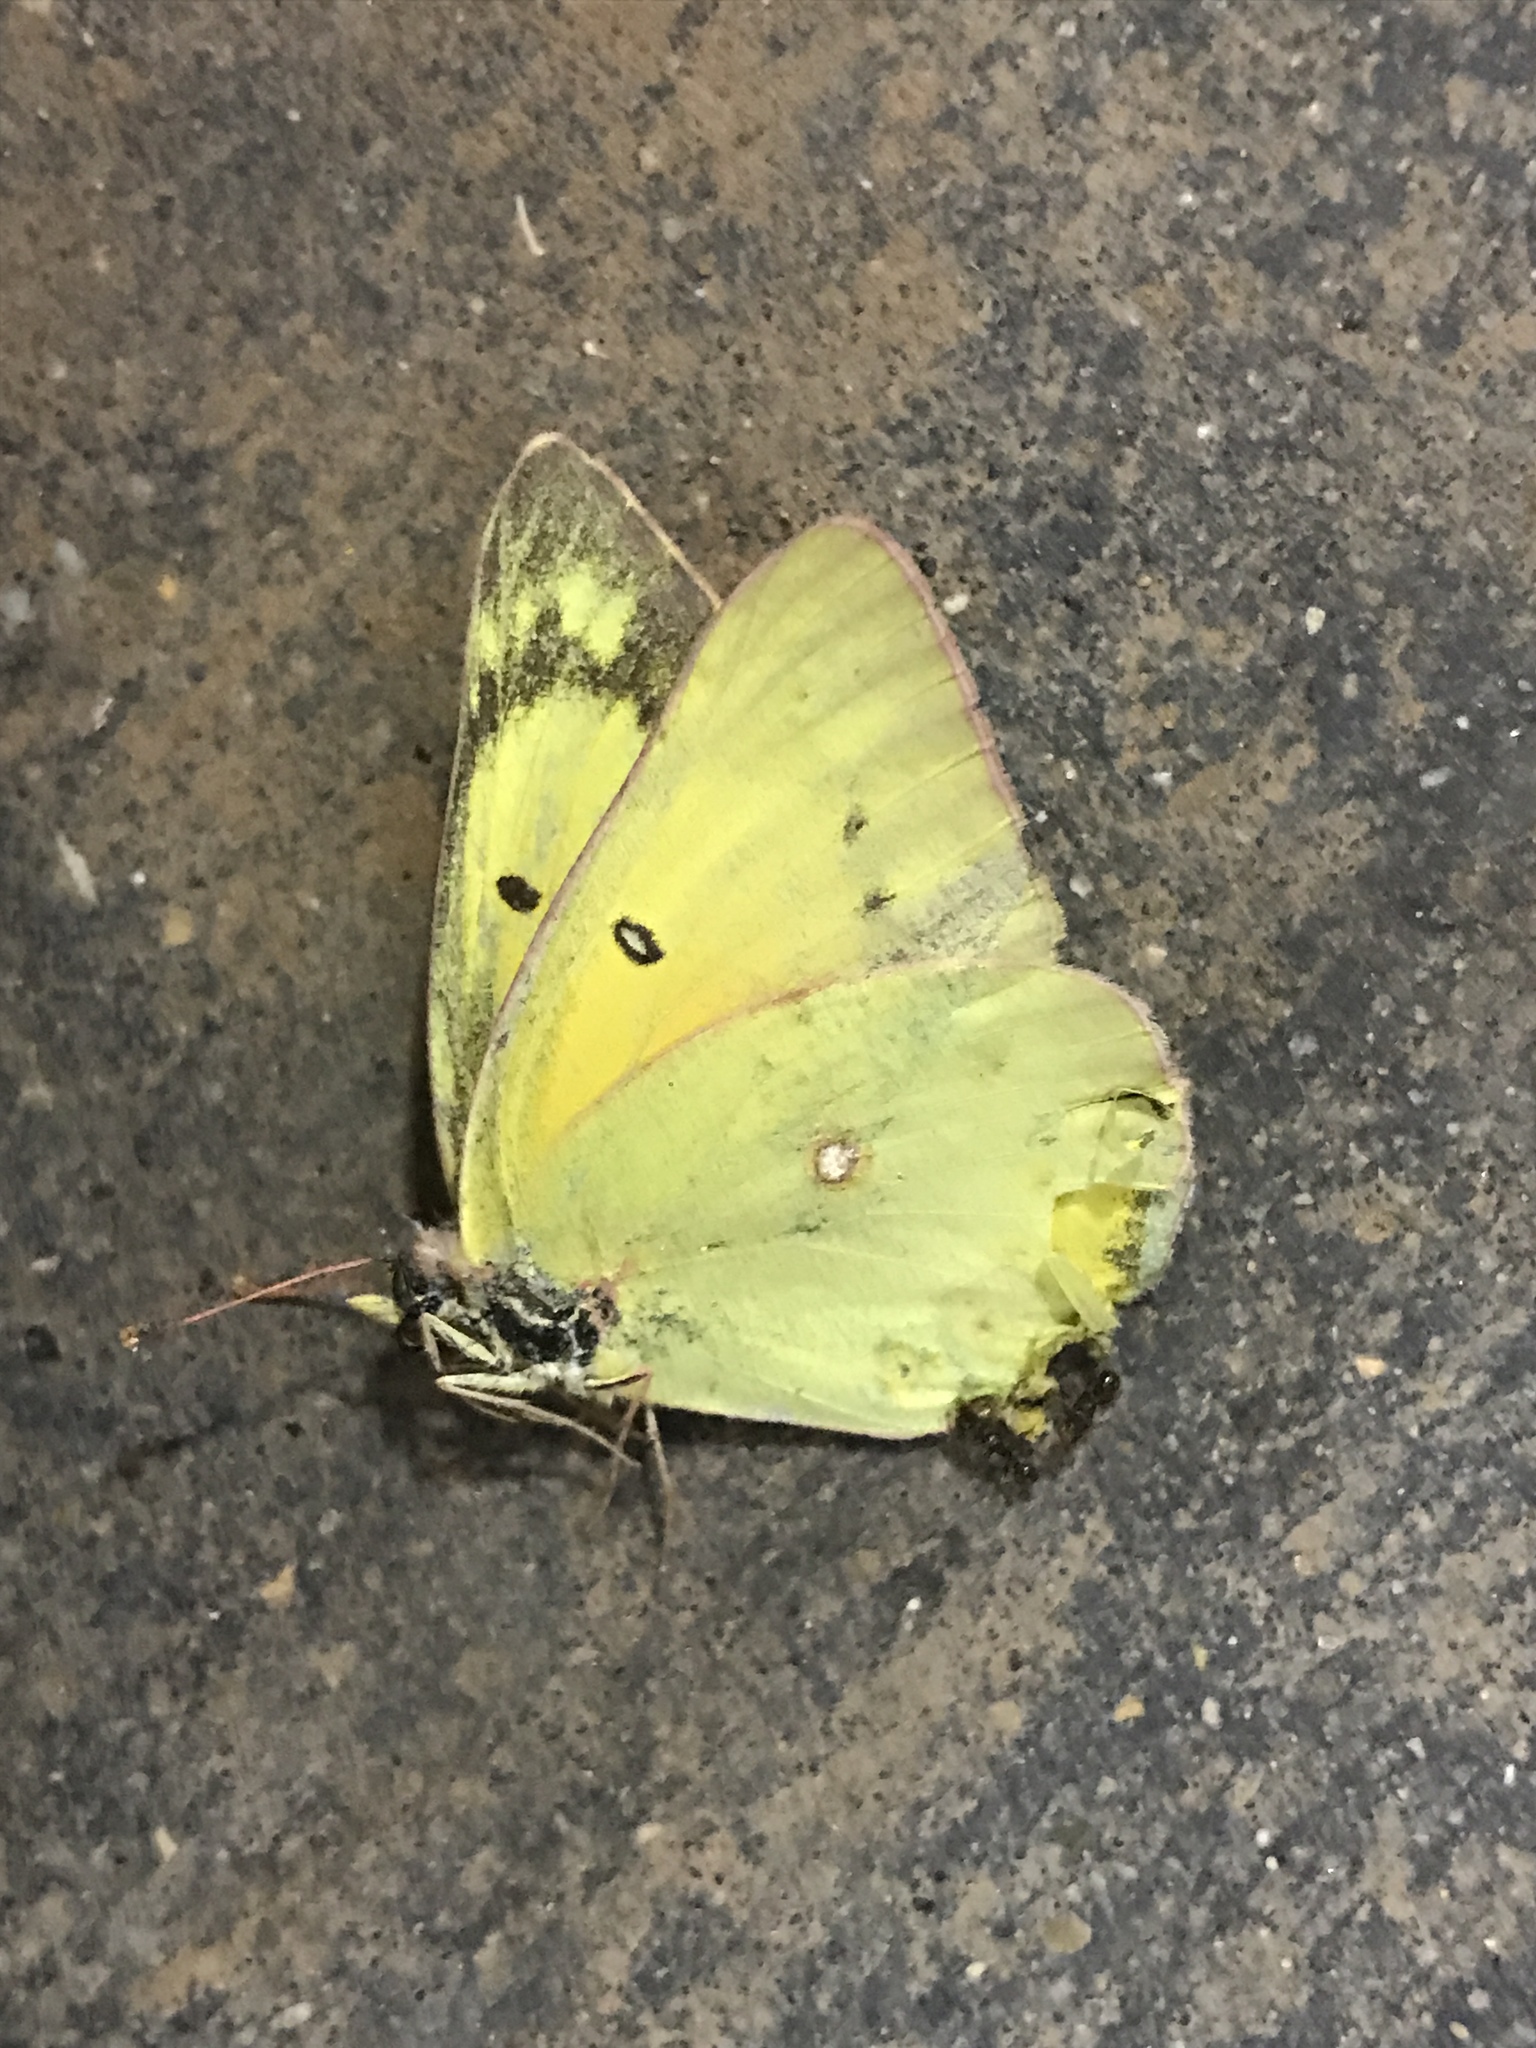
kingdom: Animalia
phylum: Arthropoda
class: Insecta
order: Lepidoptera
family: Pieridae
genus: Colias
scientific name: Colias eurytheme
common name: Alfalfa butterfly
